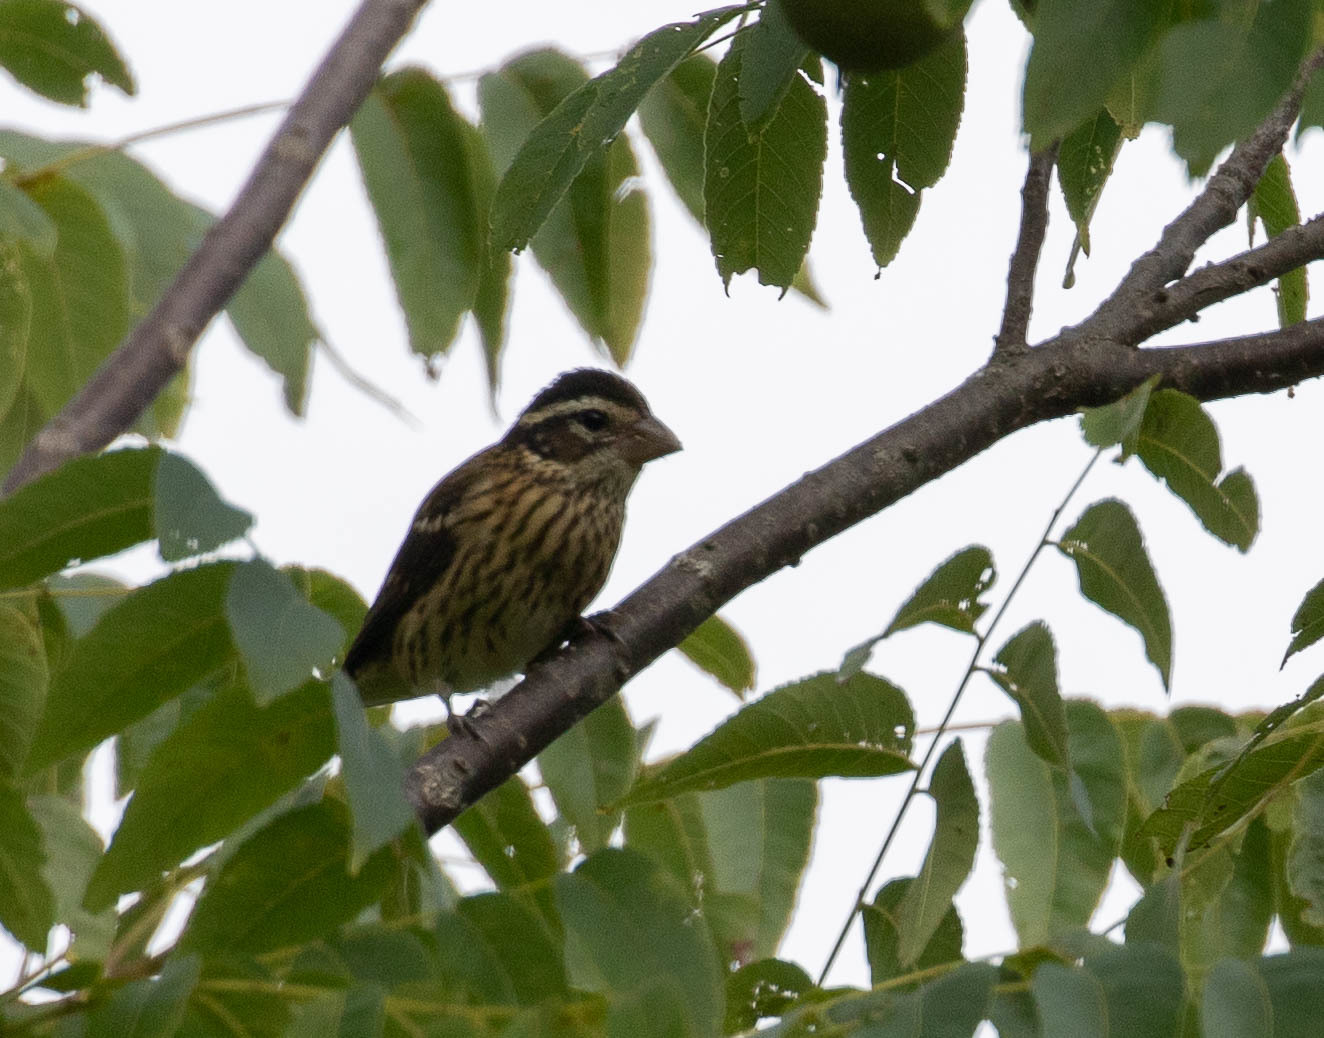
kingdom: Animalia
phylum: Chordata
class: Aves
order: Passeriformes
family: Cardinalidae
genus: Pheucticus
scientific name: Pheucticus ludovicianus
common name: Rose-breasted grosbeak
